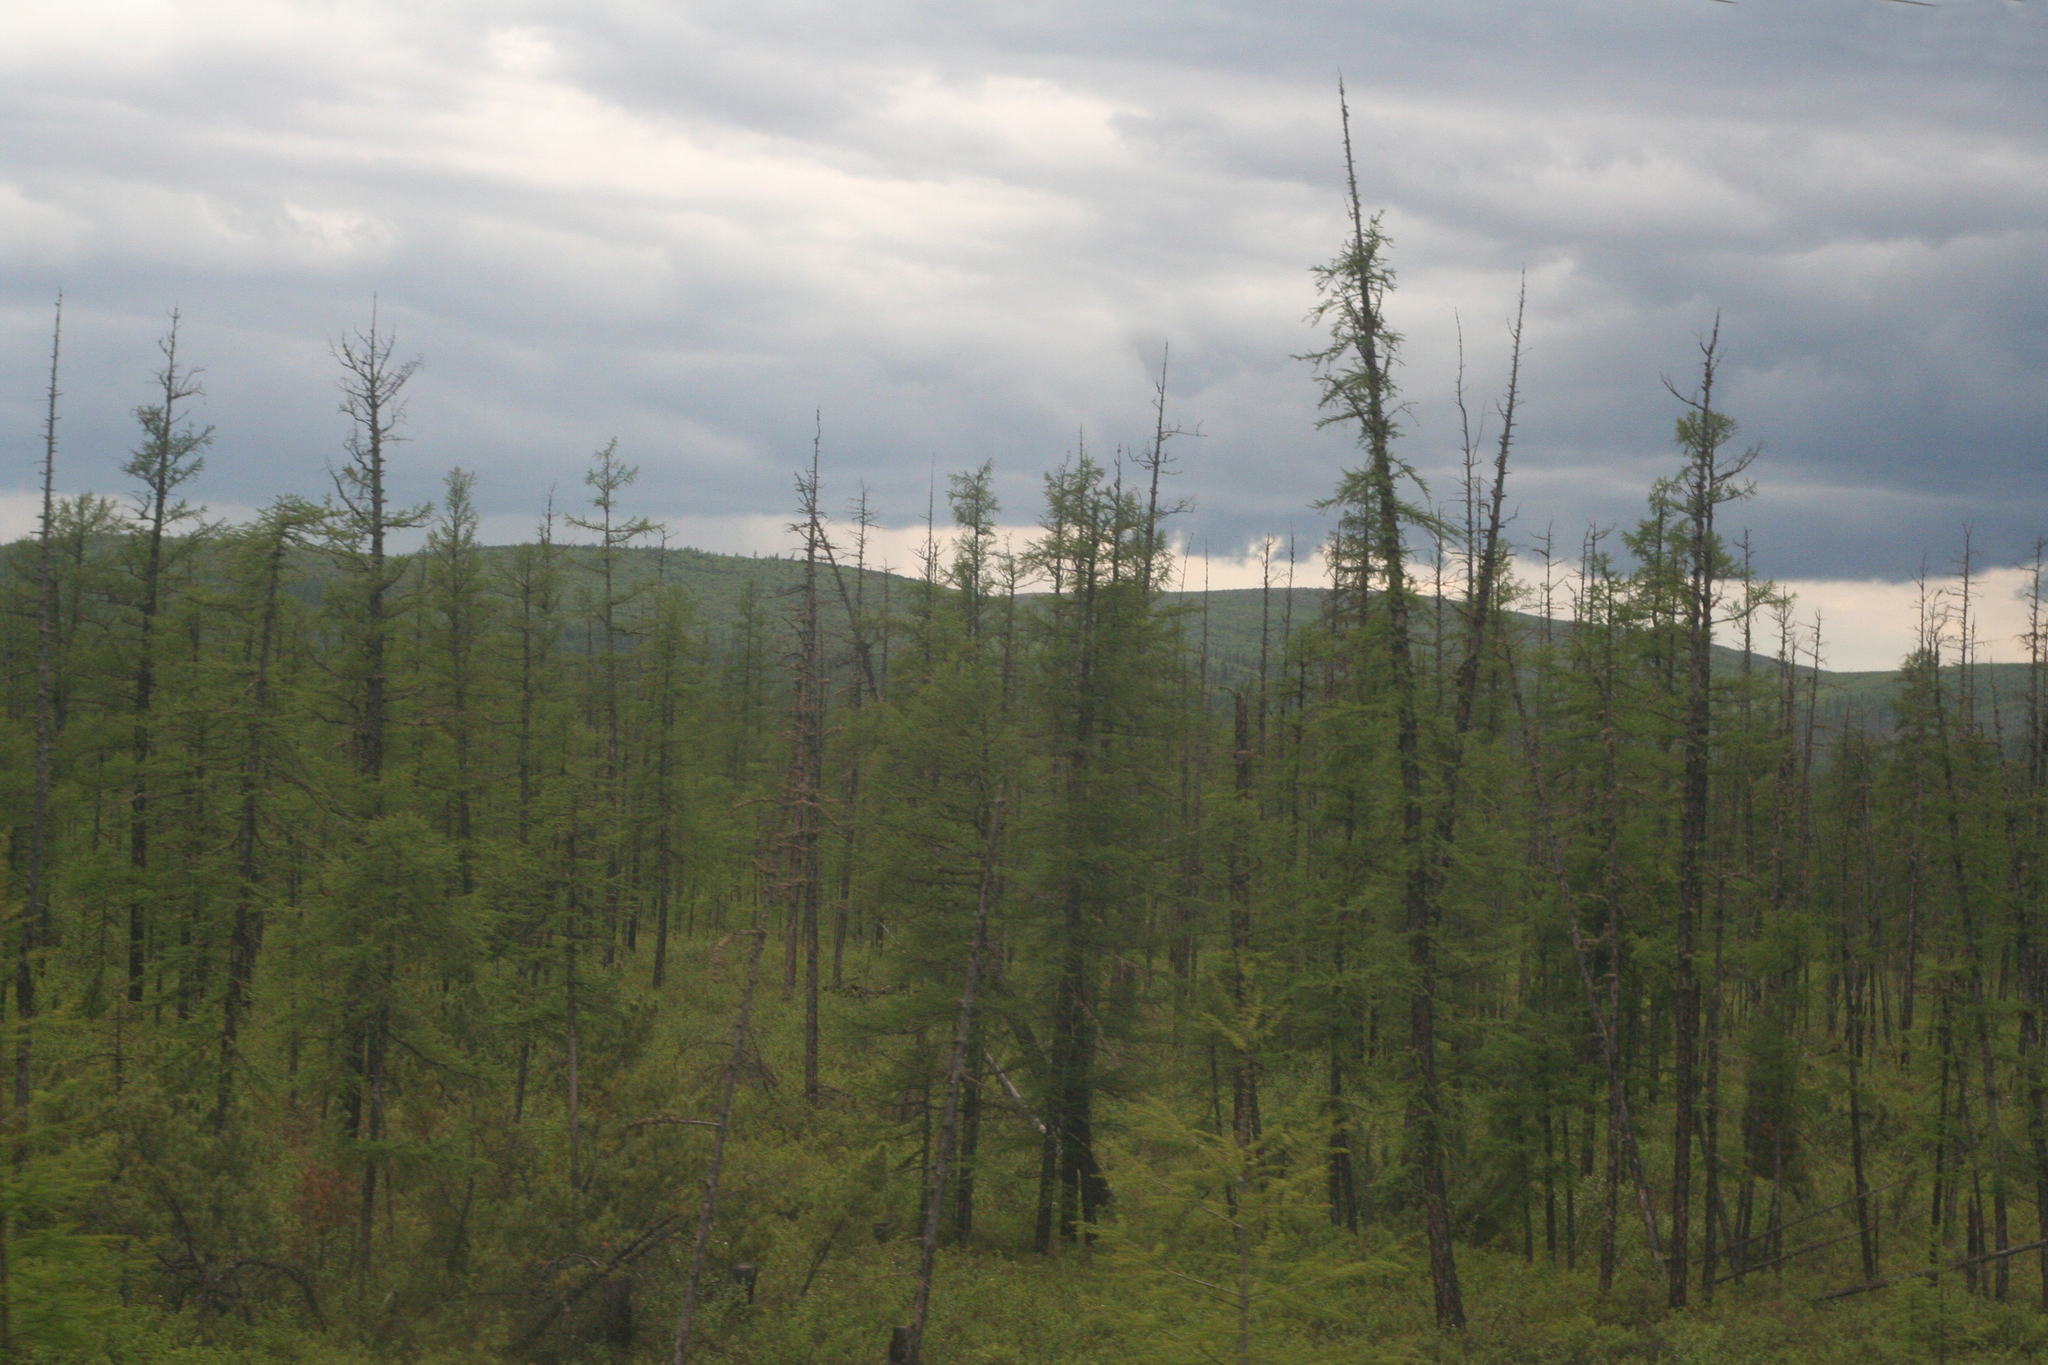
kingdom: Plantae
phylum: Tracheophyta
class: Pinopsida
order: Pinales
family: Pinaceae
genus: Larix
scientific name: Larix gmelinii
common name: Dahurian larch
